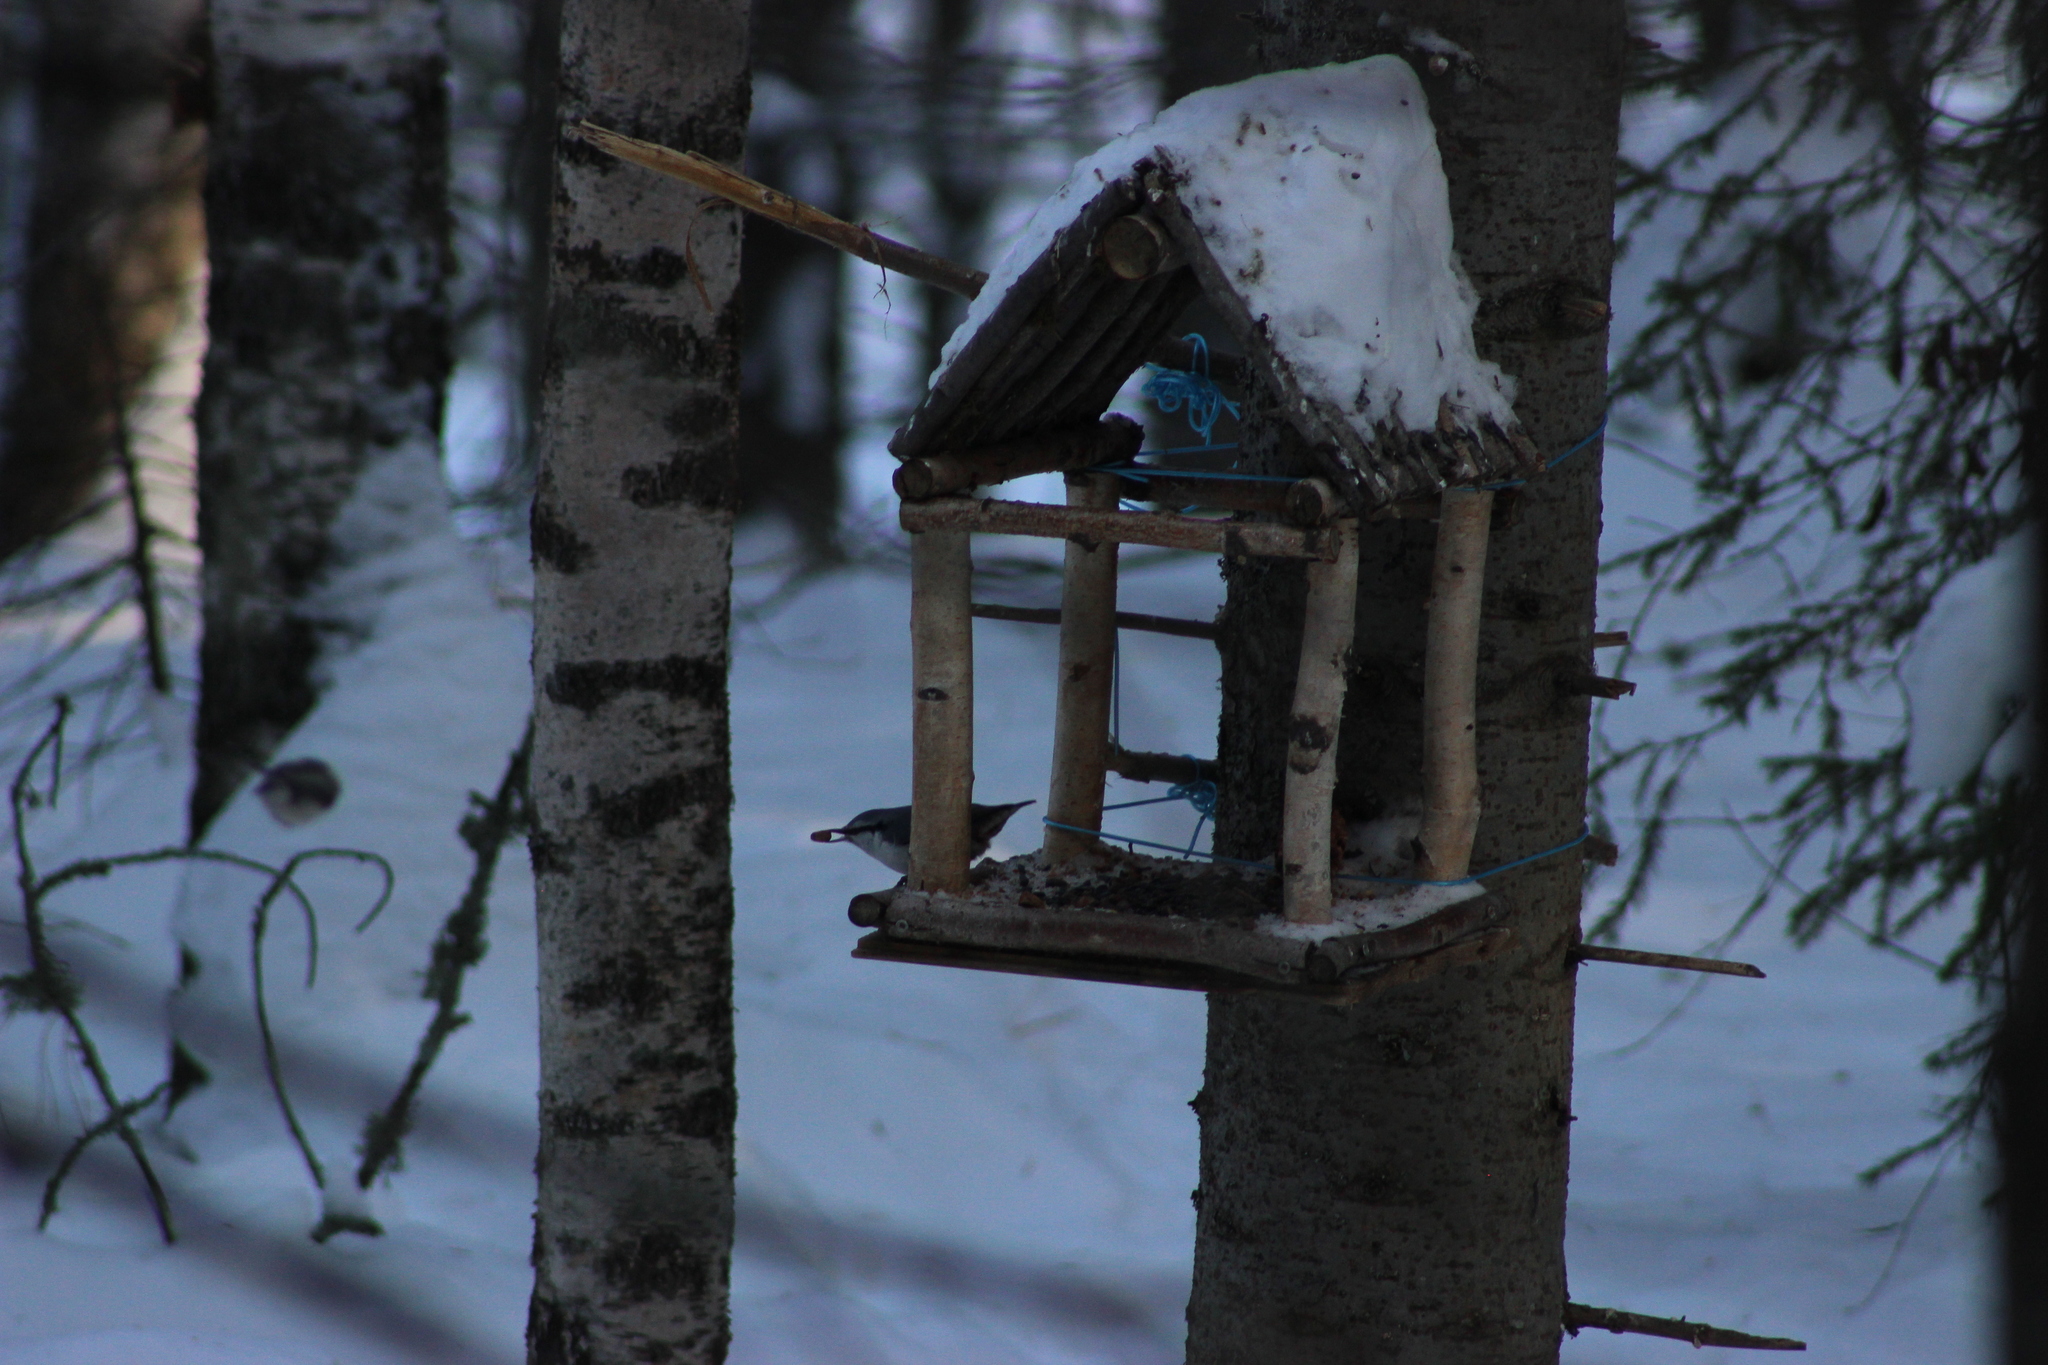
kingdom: Animalia
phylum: Chordata
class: Aves
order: Passeriformes
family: Sittidae
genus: Sitta
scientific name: Sitta europaea
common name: Eurasian nuthatch
